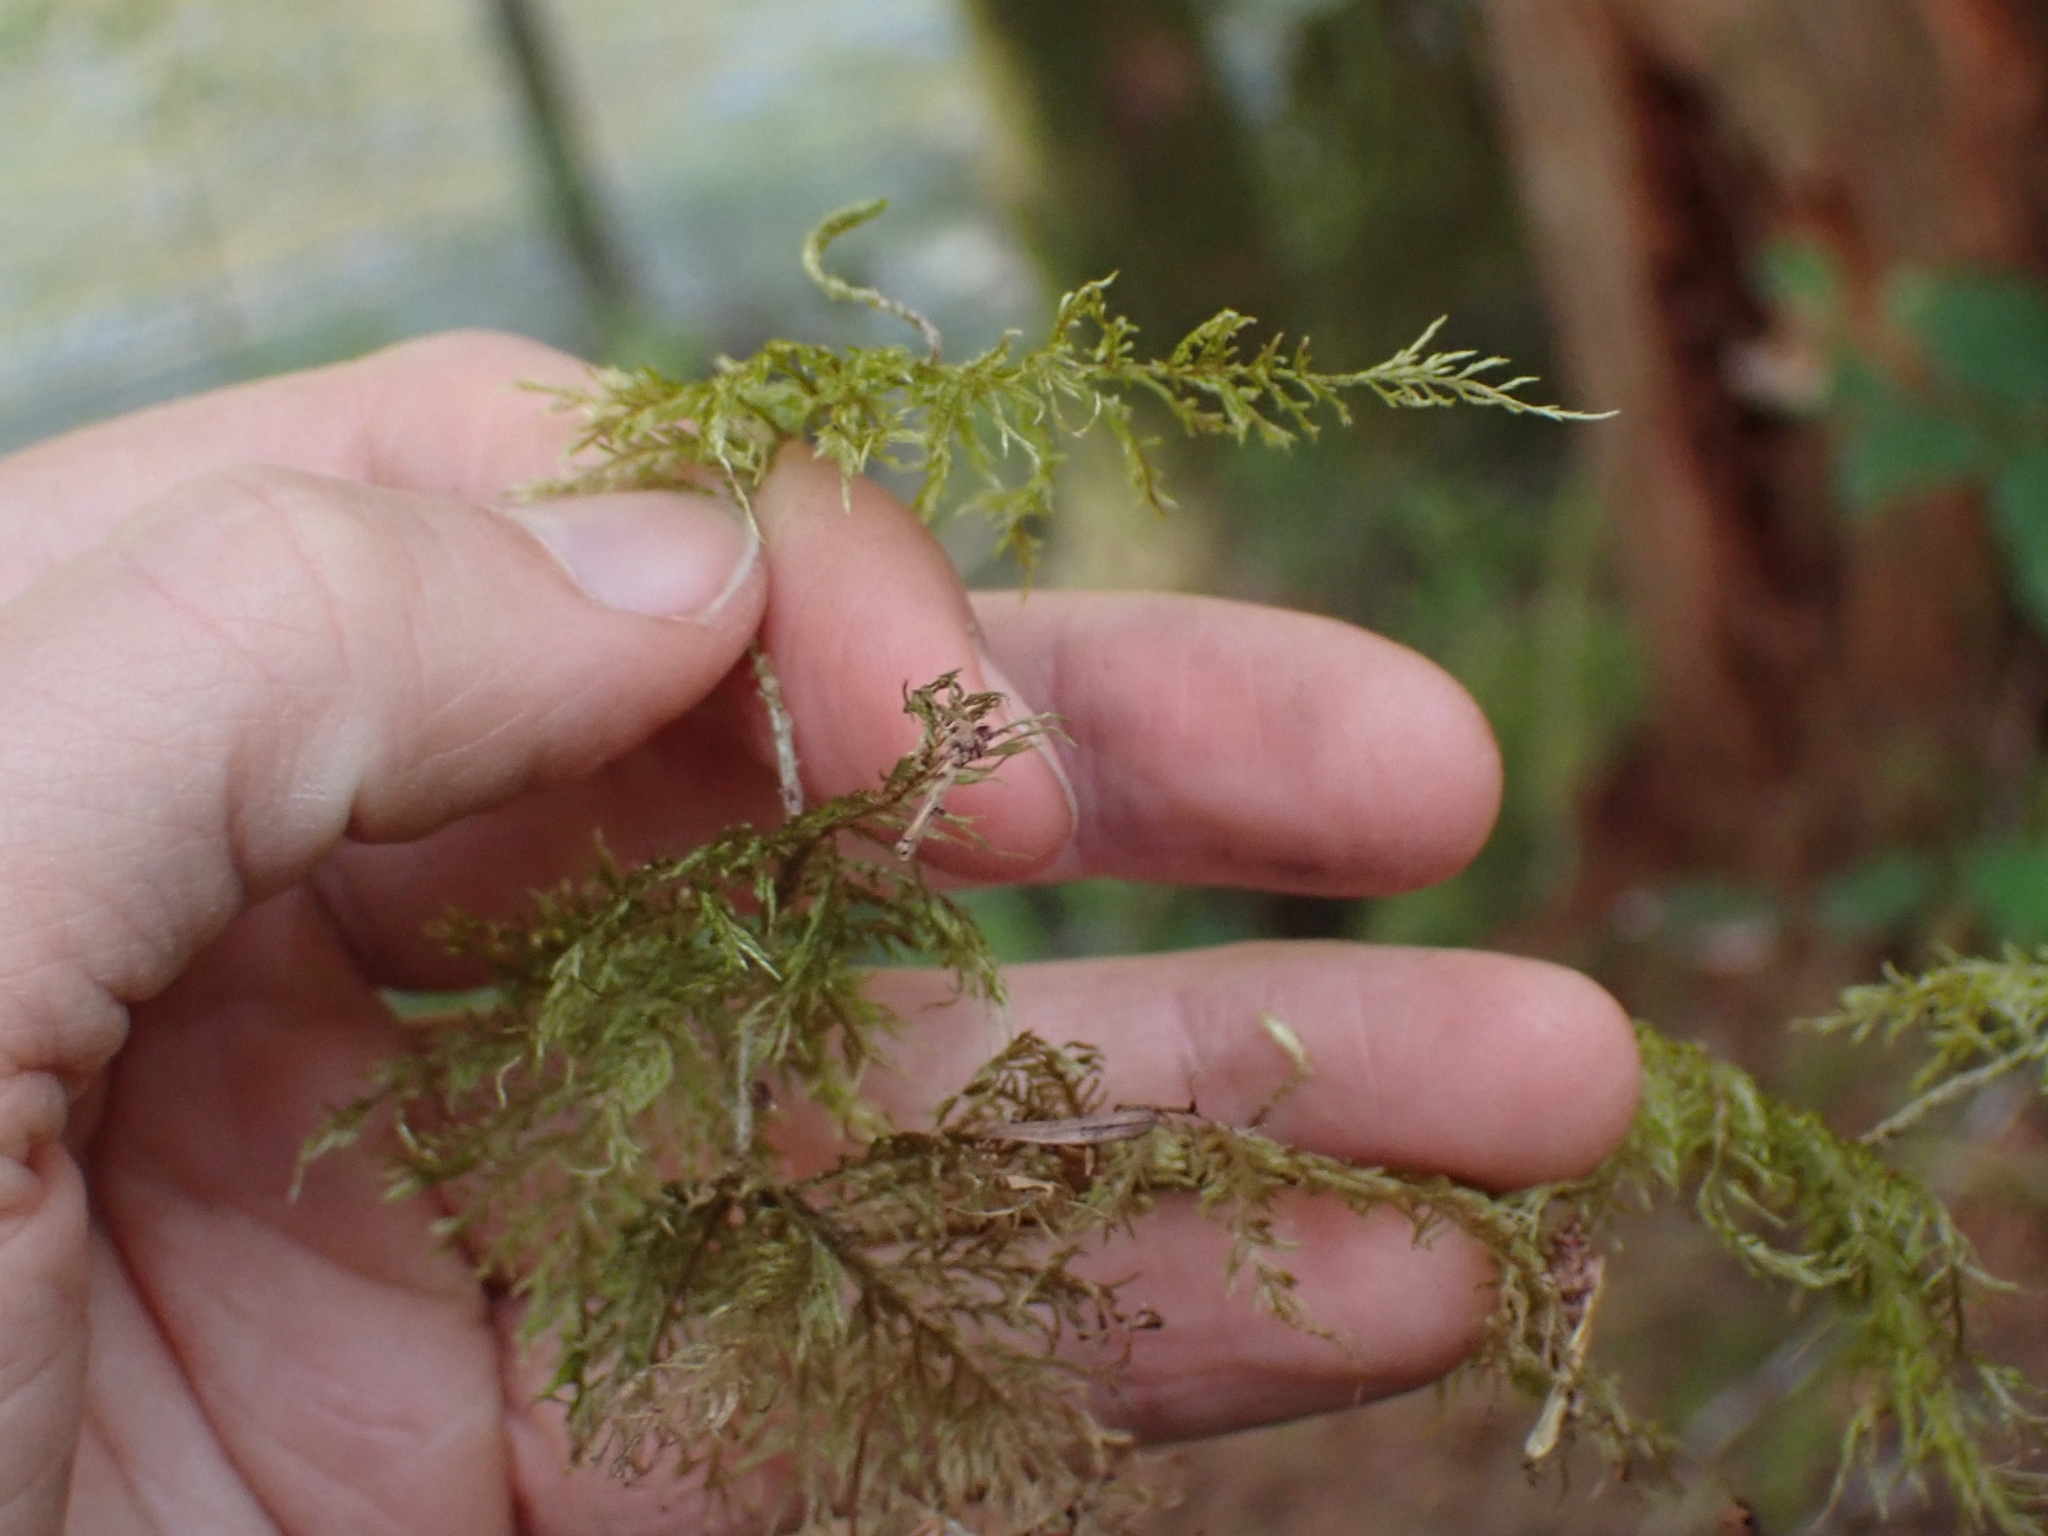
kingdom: Plantae
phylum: Bryophyta
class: Bryopsida
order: Hypnales
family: Hylocomiaceae
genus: Hylocomium
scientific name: Hylocomium splendens
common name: Stairstep moss
